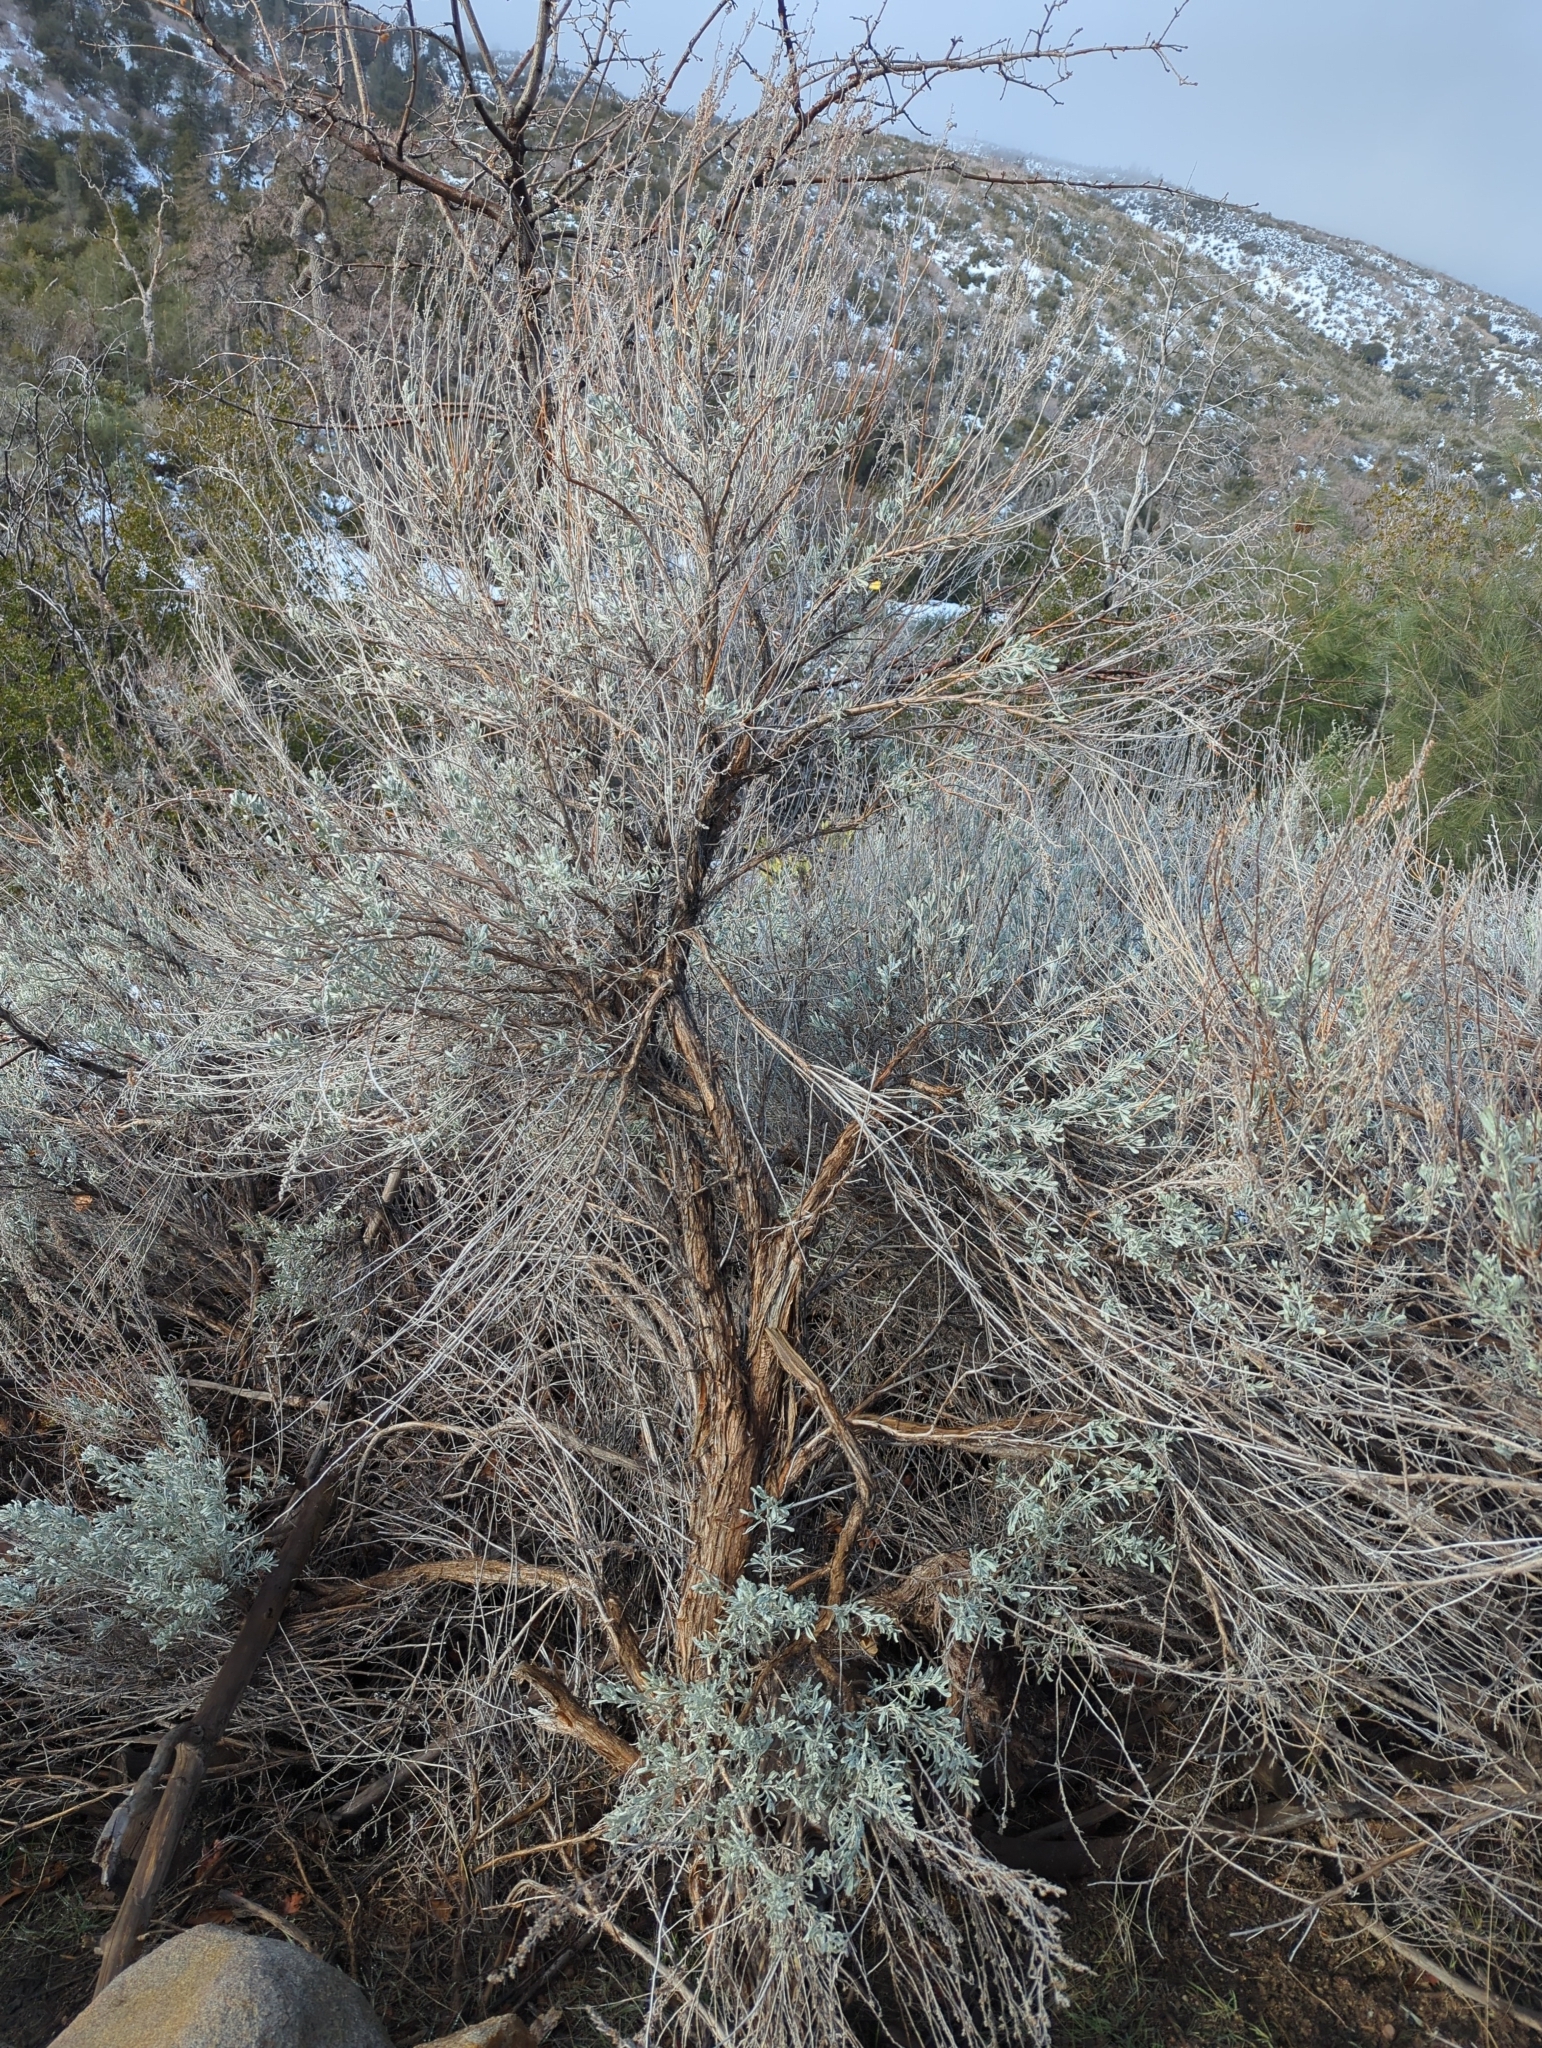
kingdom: Plantae
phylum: Tracheophyta
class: Magnoliopsida
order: Asterales
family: Asteraceae
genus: Artemisia
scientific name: Artemisia tridentata
